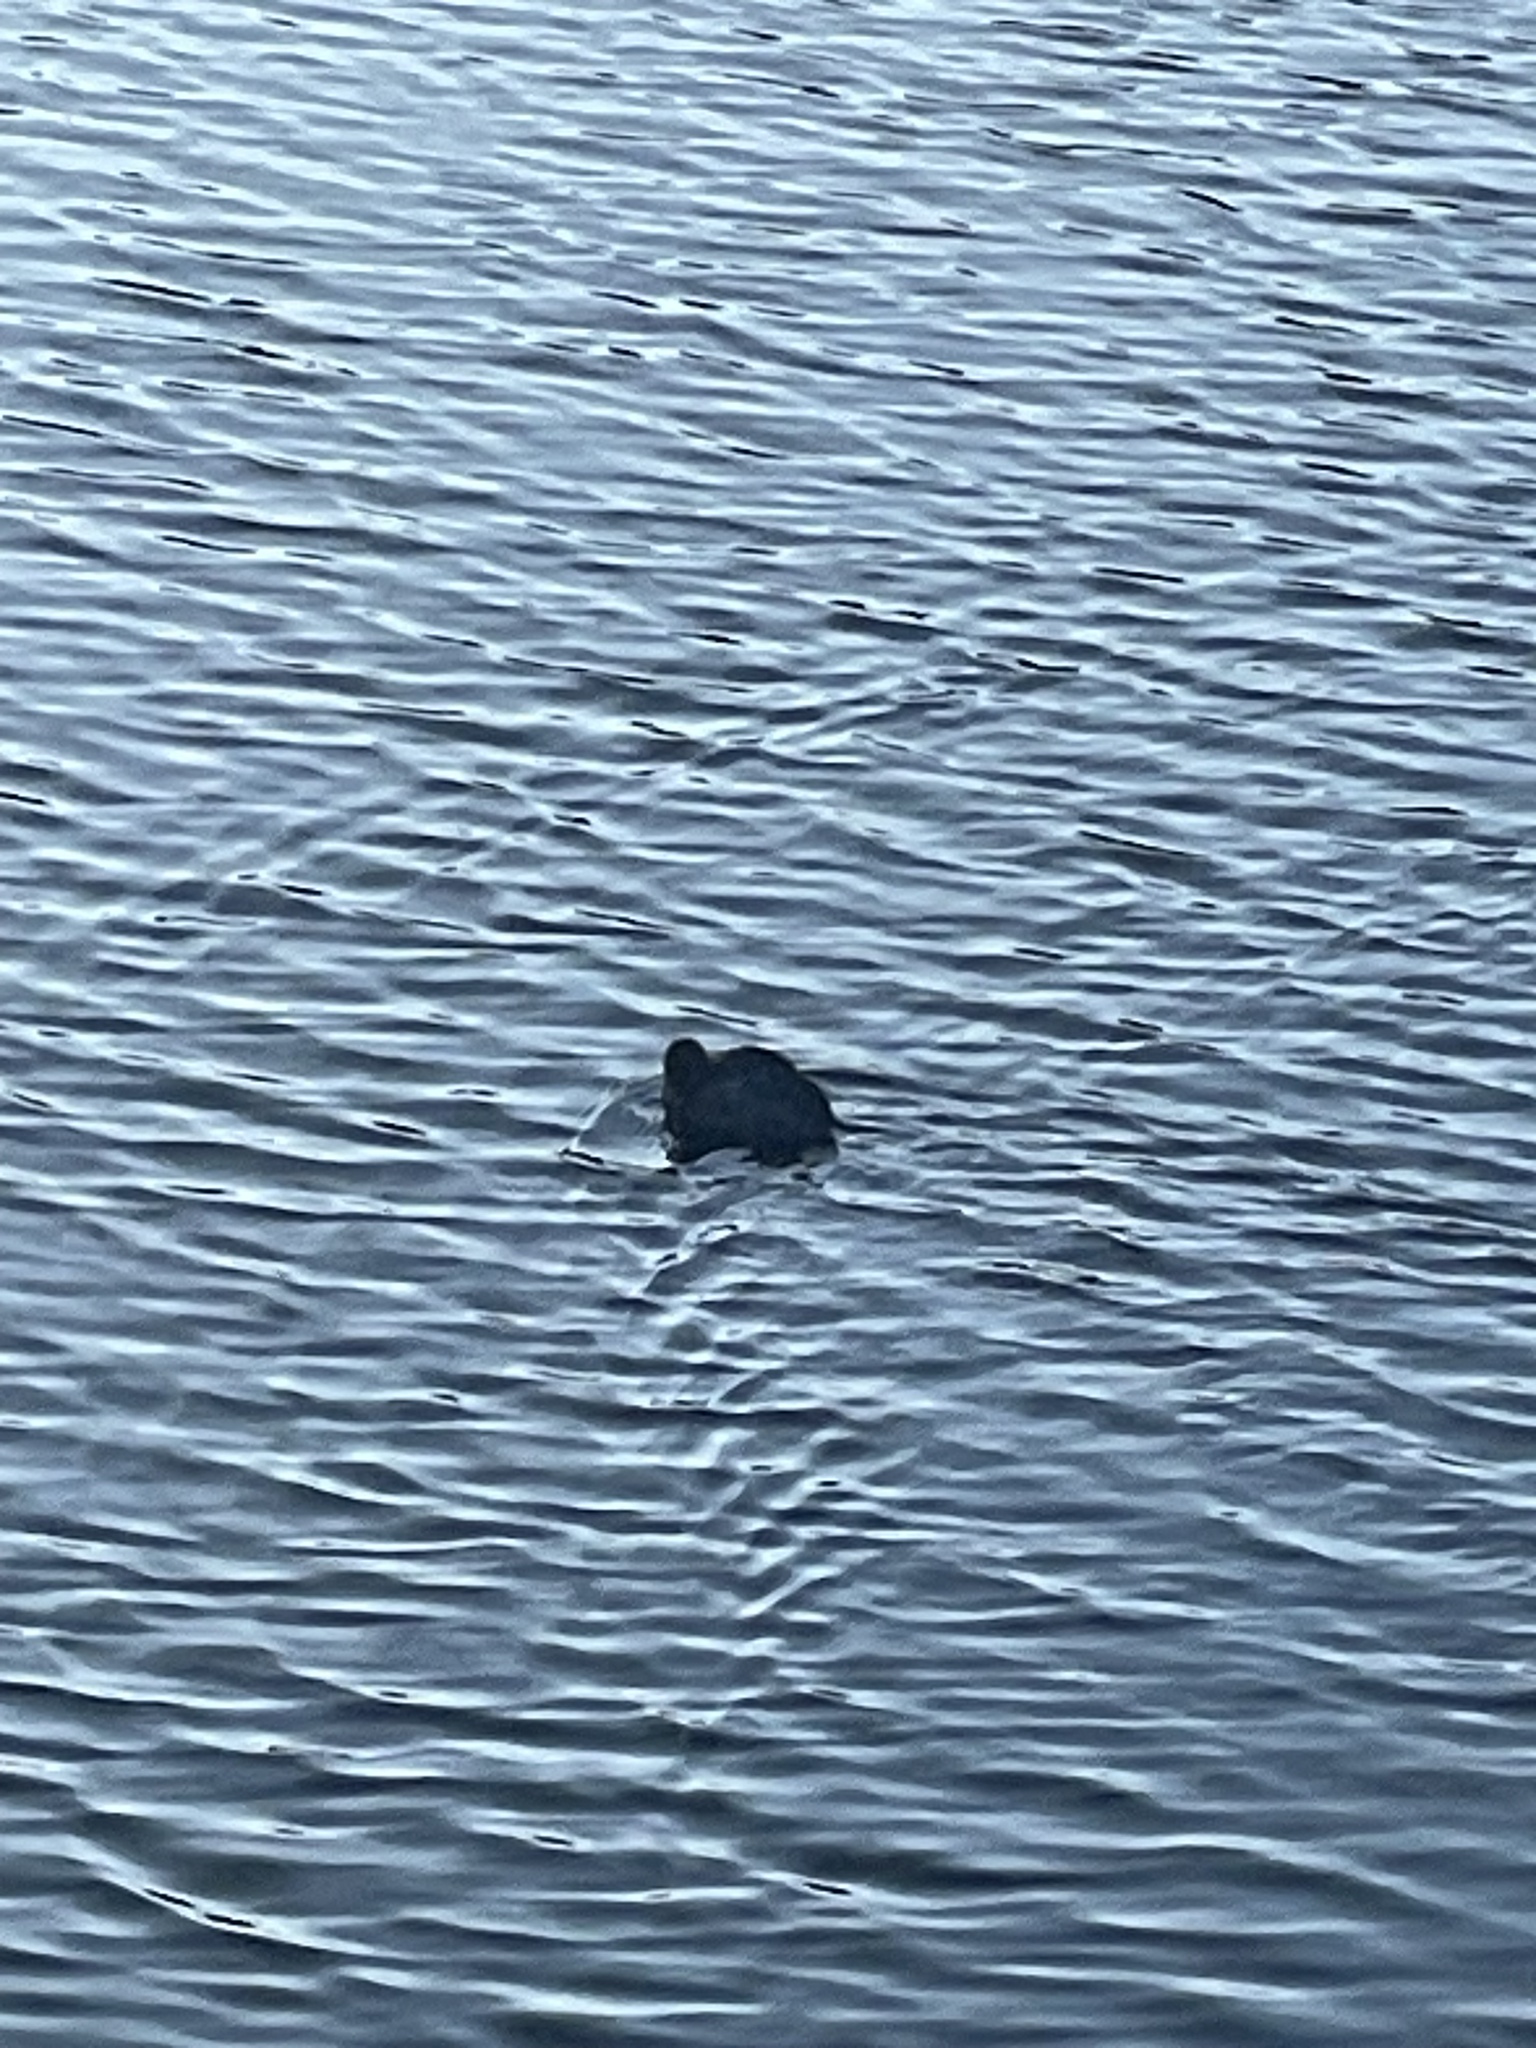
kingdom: Animalia
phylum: Chordata
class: Aves
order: Gruiformes
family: Rallidae
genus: Fulica
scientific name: Fulica americana
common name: American coot
